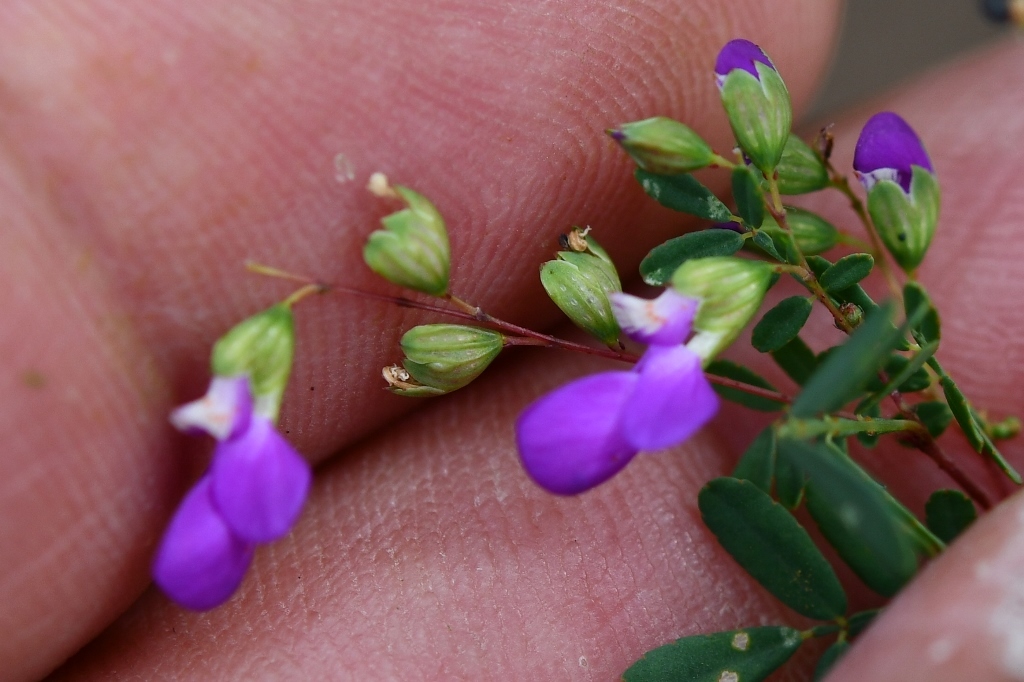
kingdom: Plantae
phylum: Tracheophyta
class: Magnoliopsida
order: Fabales
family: Fabaceae
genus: Marina
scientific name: Marina scopa
